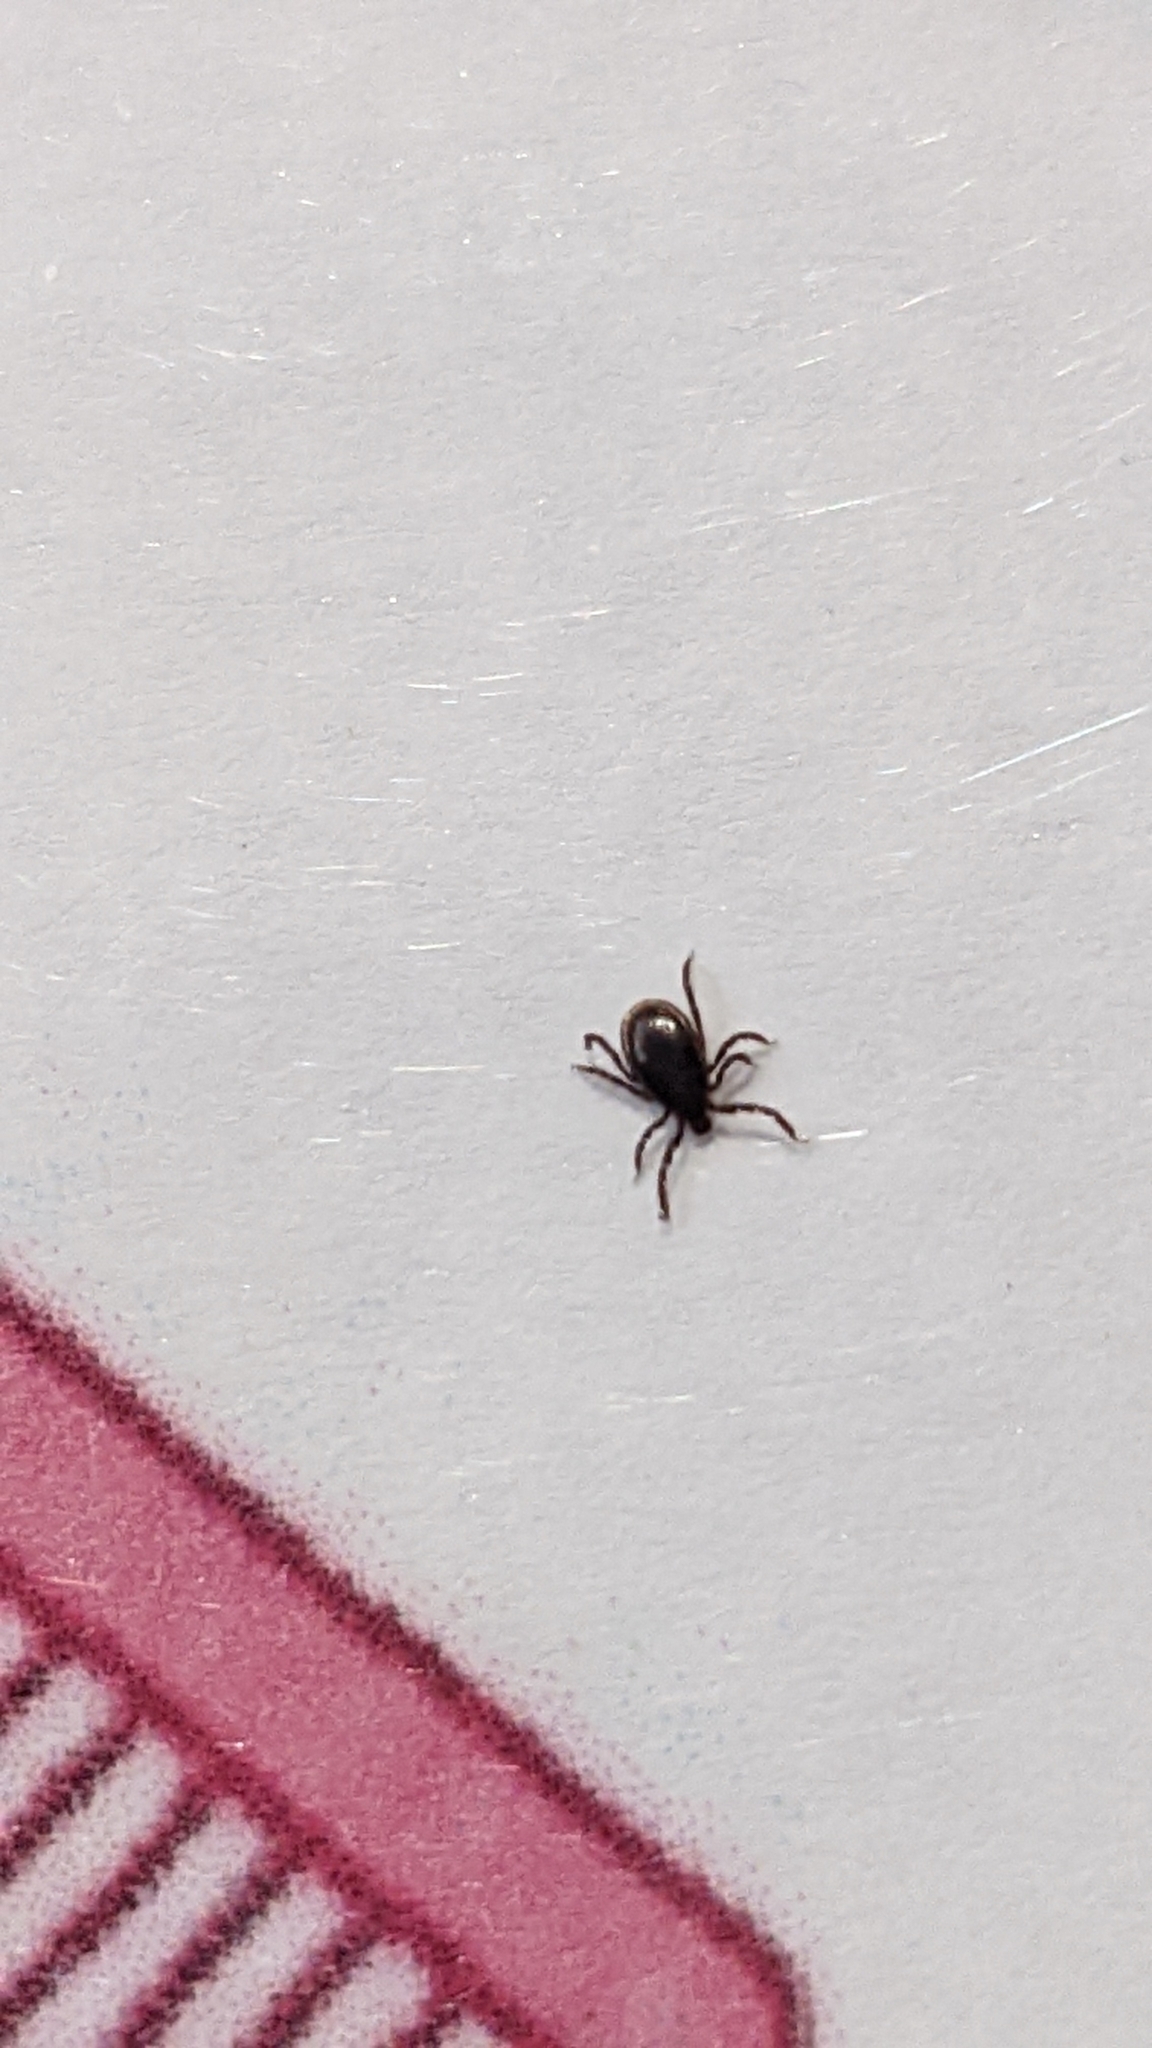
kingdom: Animalia
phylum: Arthropoda
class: Arachnida
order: Ixodida
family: Ixodidae
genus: Ixodes
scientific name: Ixodes scapularis
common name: Black legged tick
